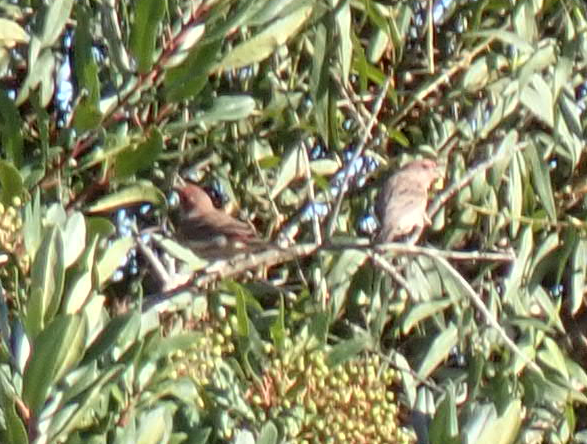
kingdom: Animalia
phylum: Chordata
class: Aves
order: Passeriformes
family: Fringillidae
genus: Haemorhous
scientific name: Haemorhous mexicanus
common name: House finch
